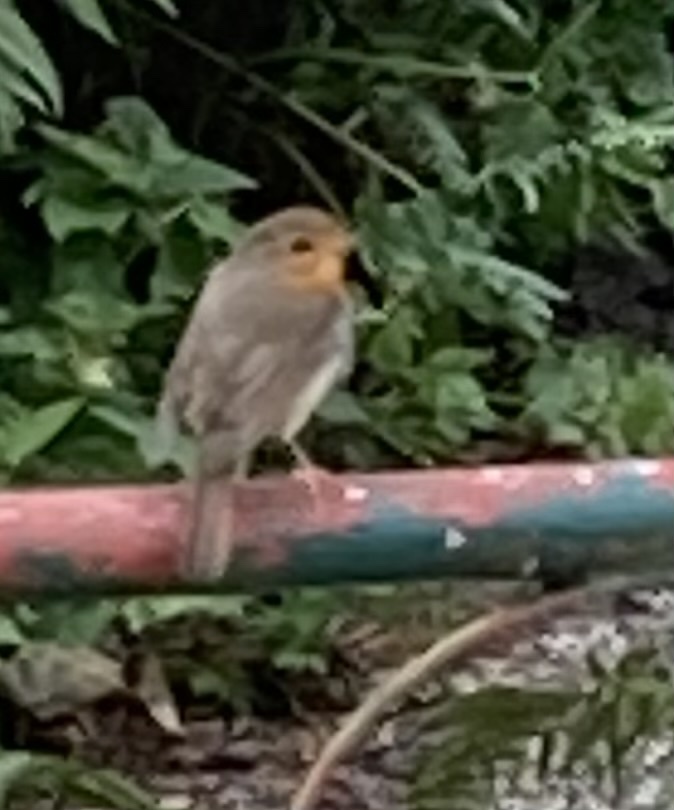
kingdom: Animalia
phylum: Chordata
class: Aves
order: Passeriformes
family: Muscicapidae
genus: Erithacus
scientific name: Erithacus rubecula
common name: European robin
